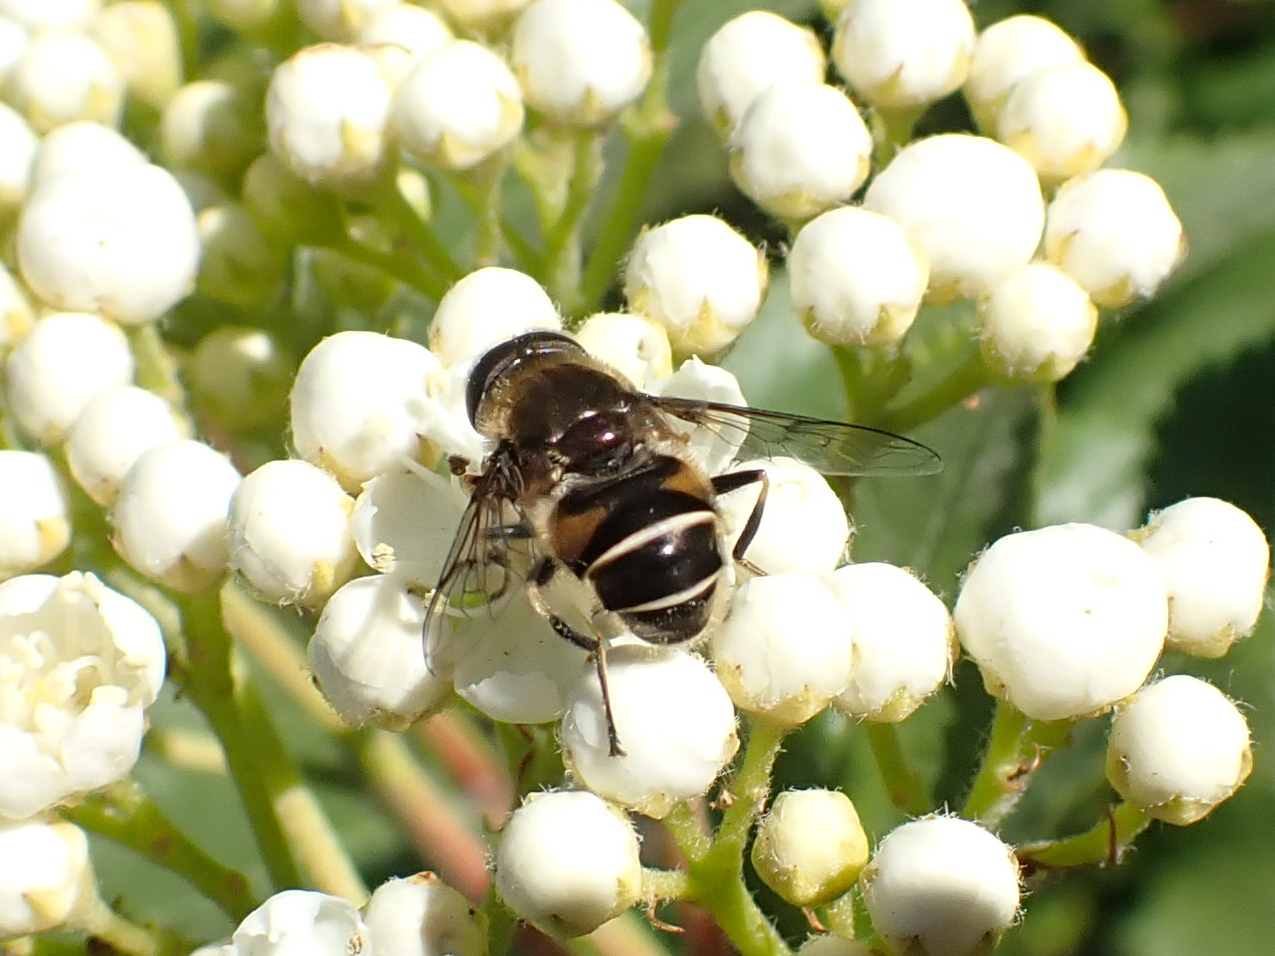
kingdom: Animalia
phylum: Arthropoda
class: Insecta
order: Diptera
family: Syrphidae
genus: Eristalis
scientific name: Eristalis obscura
